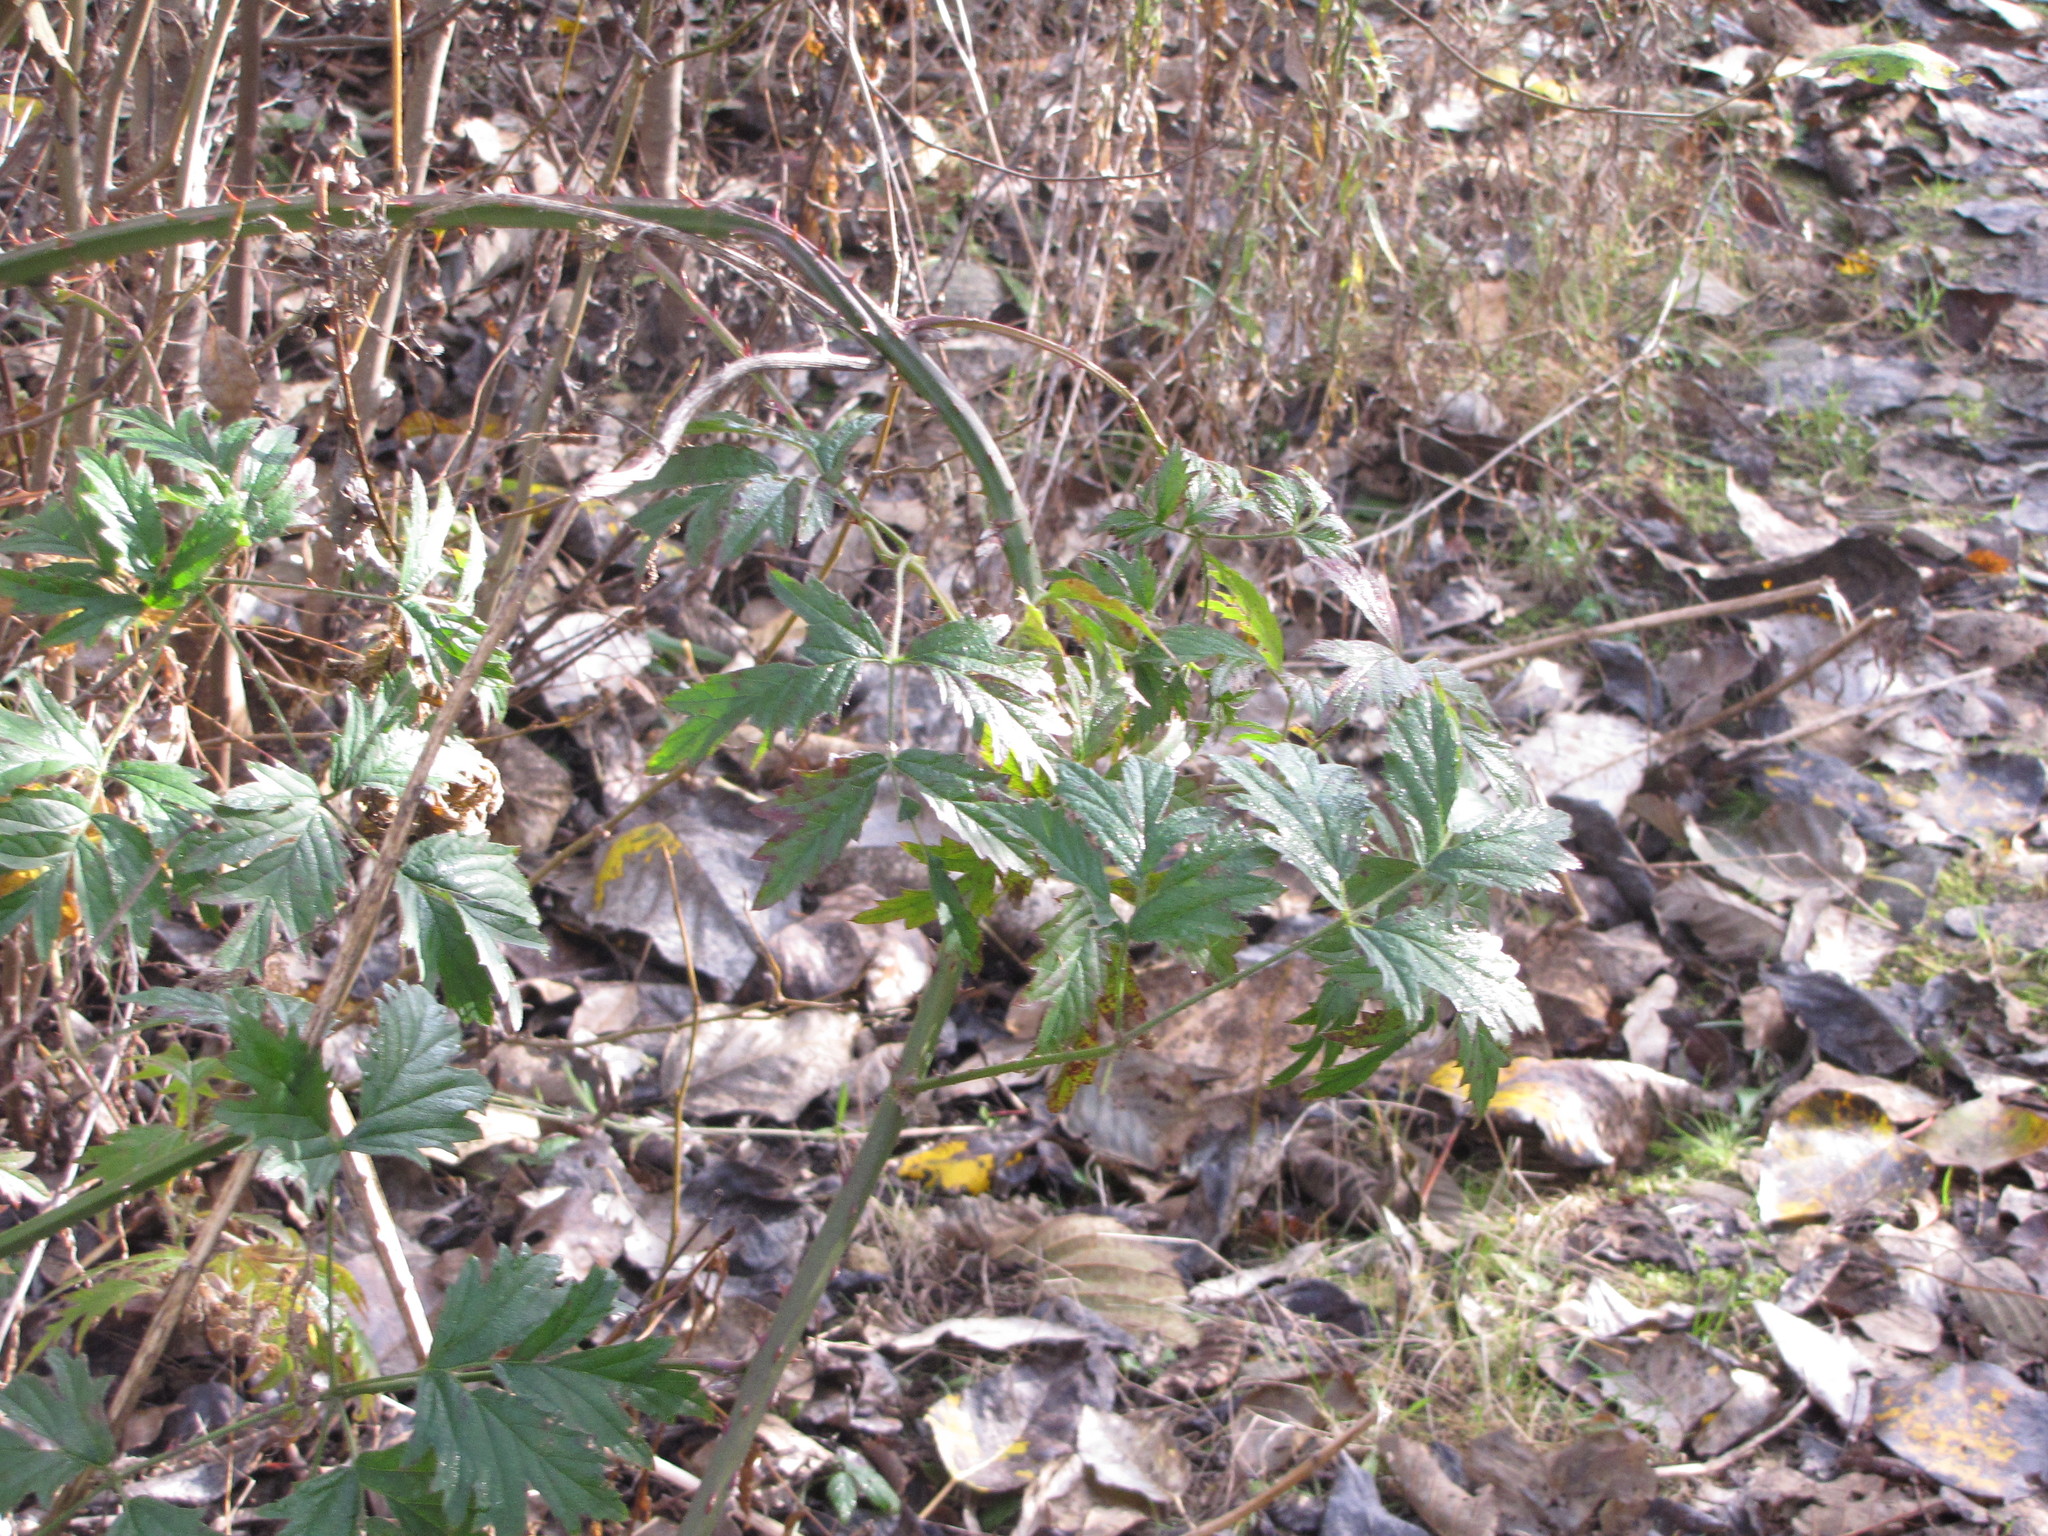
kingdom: Plantae
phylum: Tracheophyta
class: Magnoliopsida
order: Rosales
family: Rosaceae
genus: Rubus
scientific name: Rubus laciniatus
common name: Evergreen blackberry
